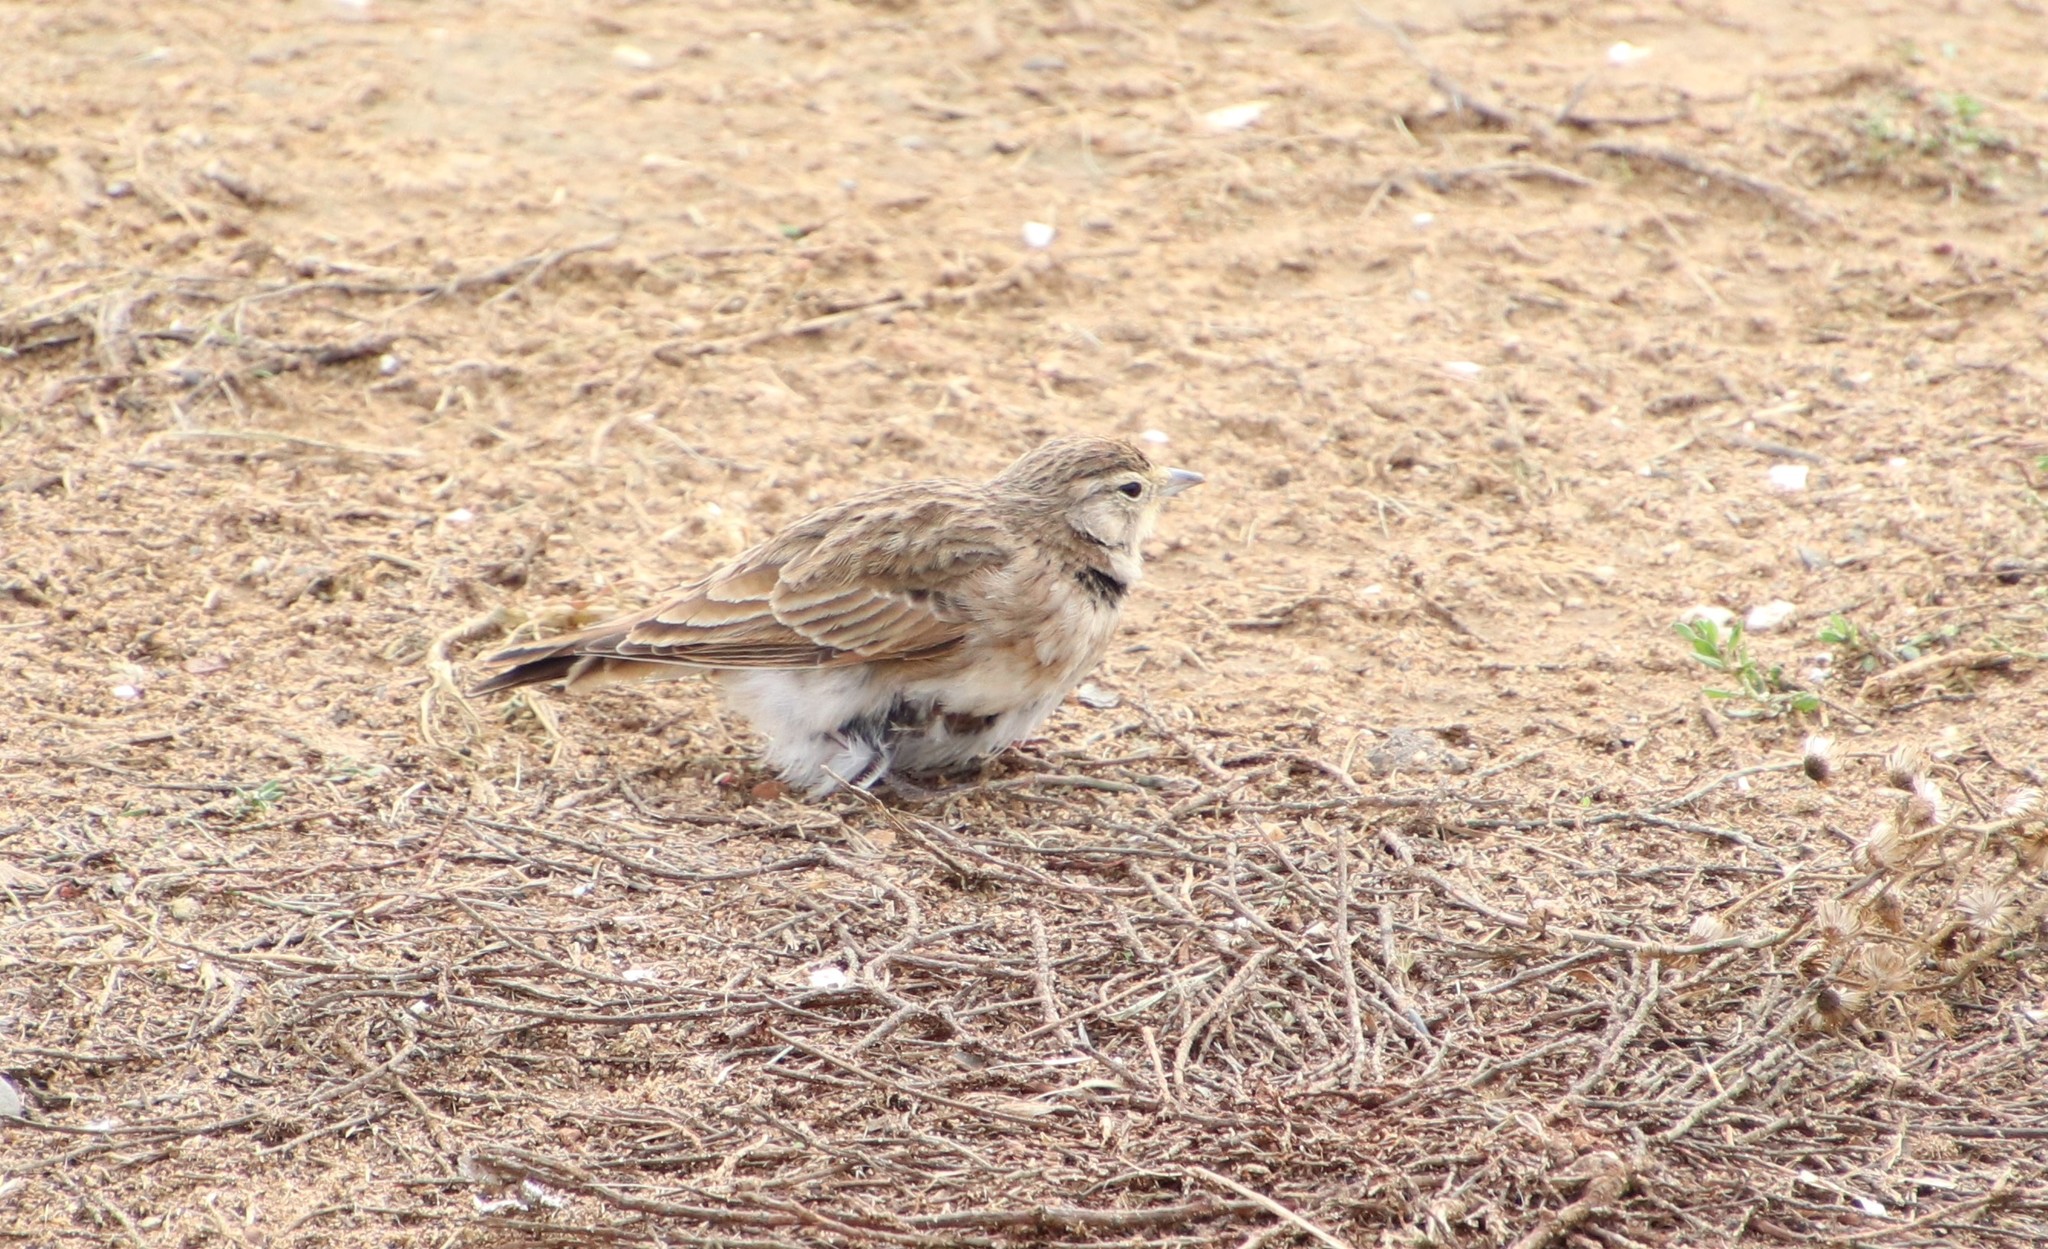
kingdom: Animalia
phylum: Chordata
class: Aves
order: Passeriformes
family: Alaudidae
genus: Eremophila
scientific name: Eremophila alpestris
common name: Horned lark
